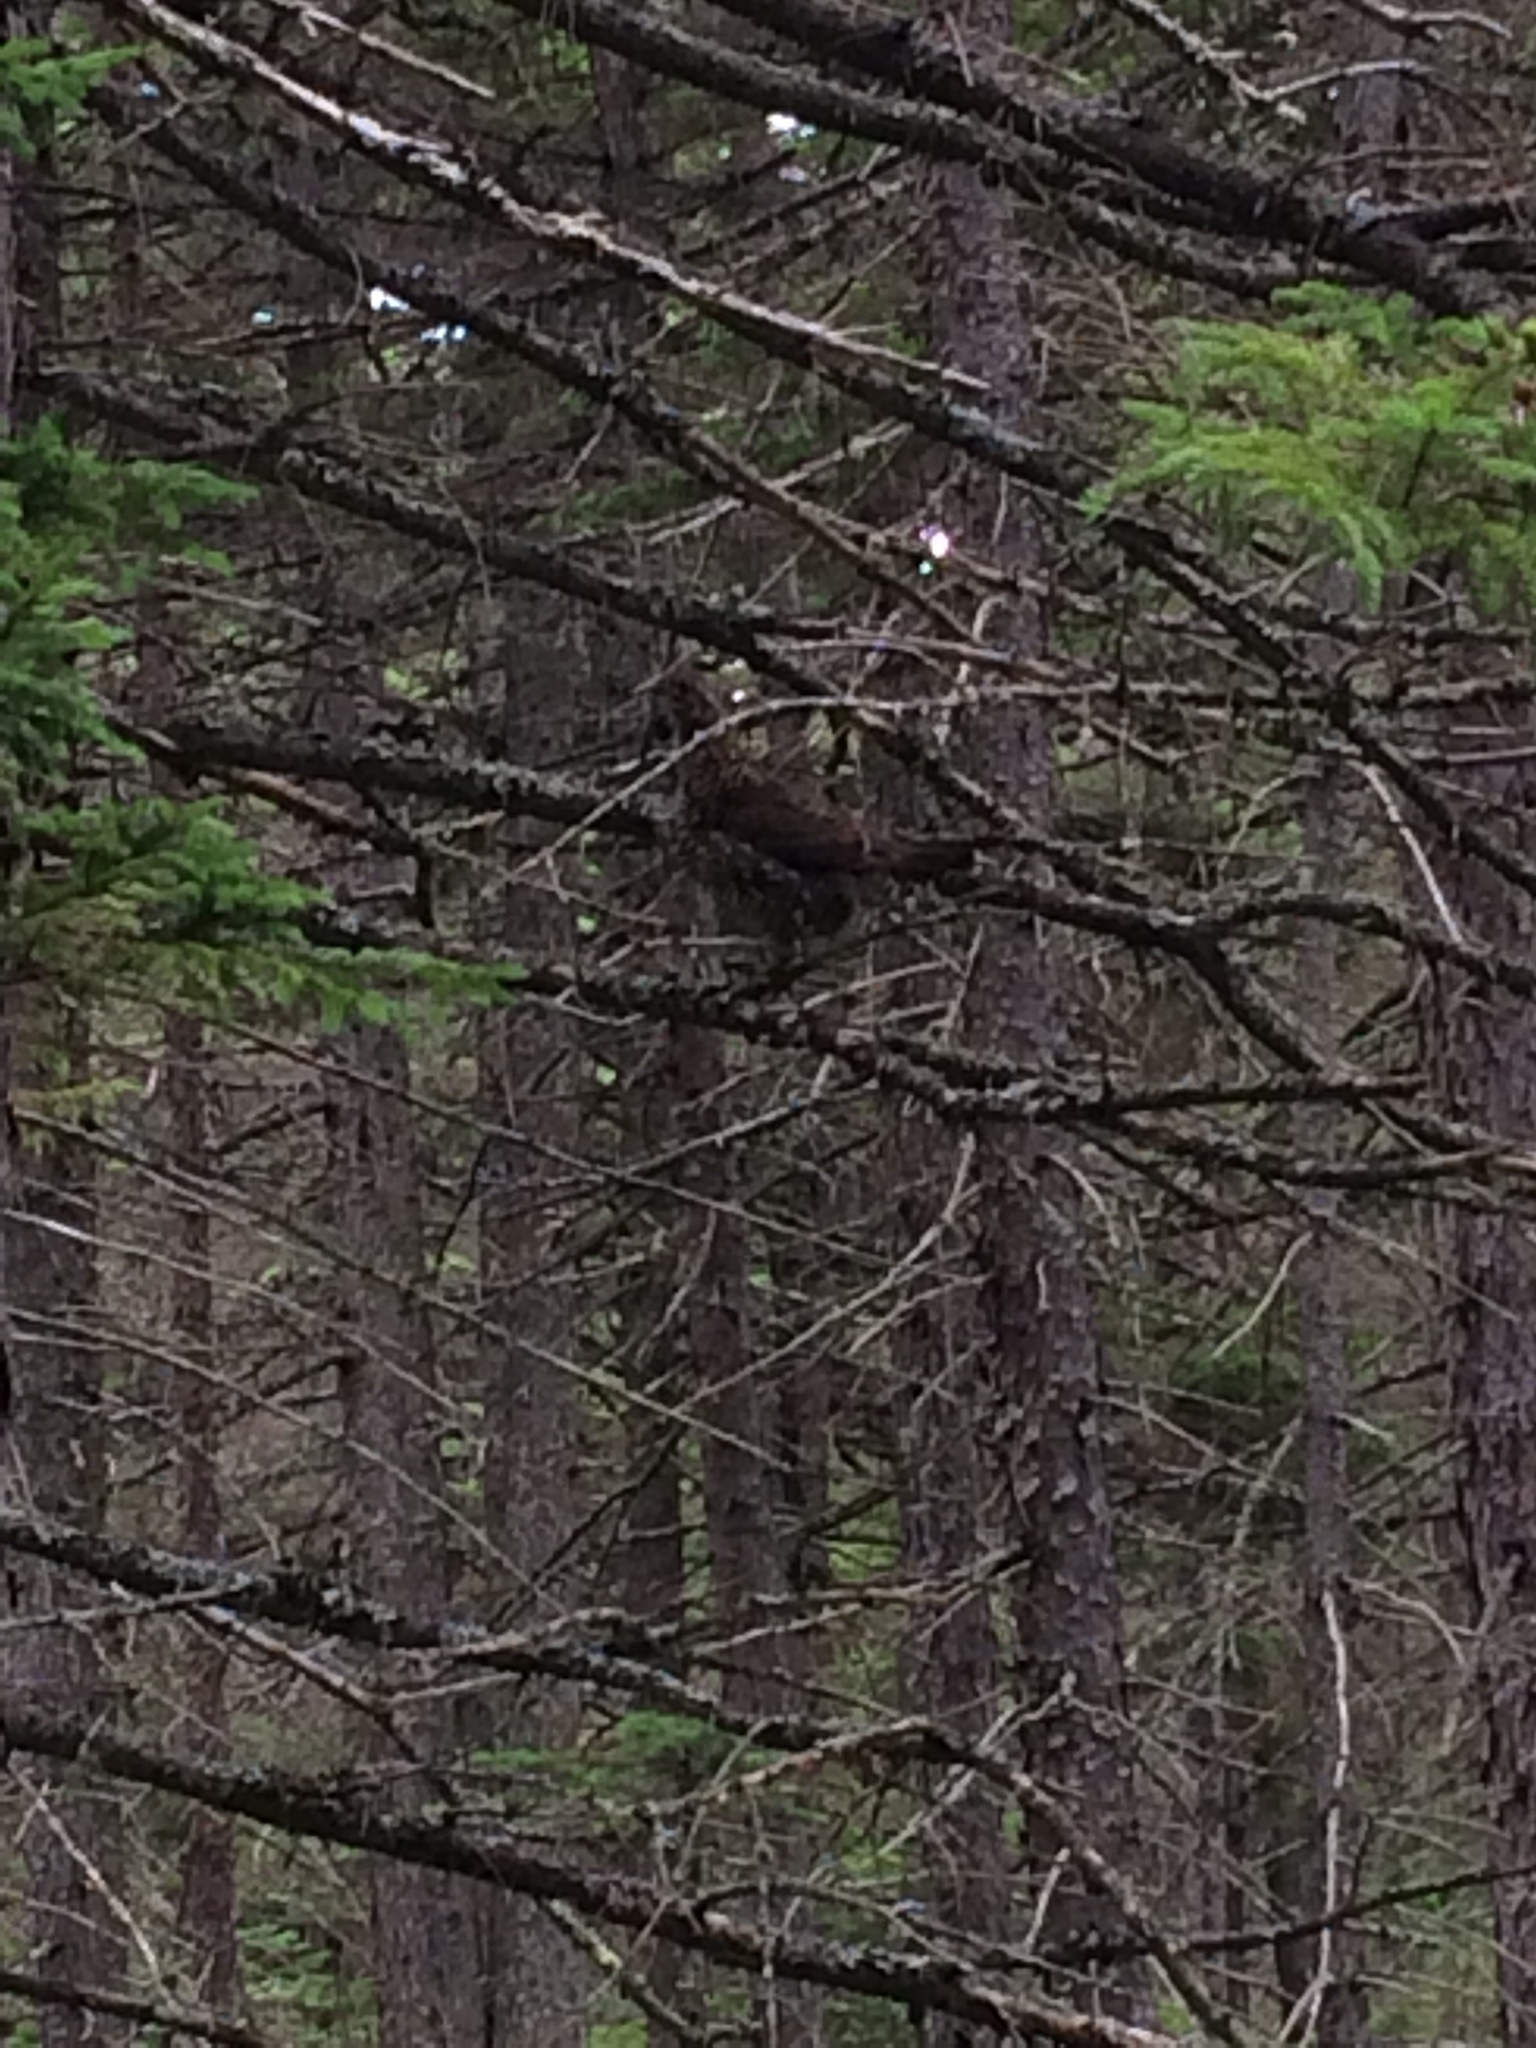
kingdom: Animalia
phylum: Chordata
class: Aves
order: Galliformes
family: Phasianidae
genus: Canachites
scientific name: Canachites canadensis
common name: Spruce grouse
